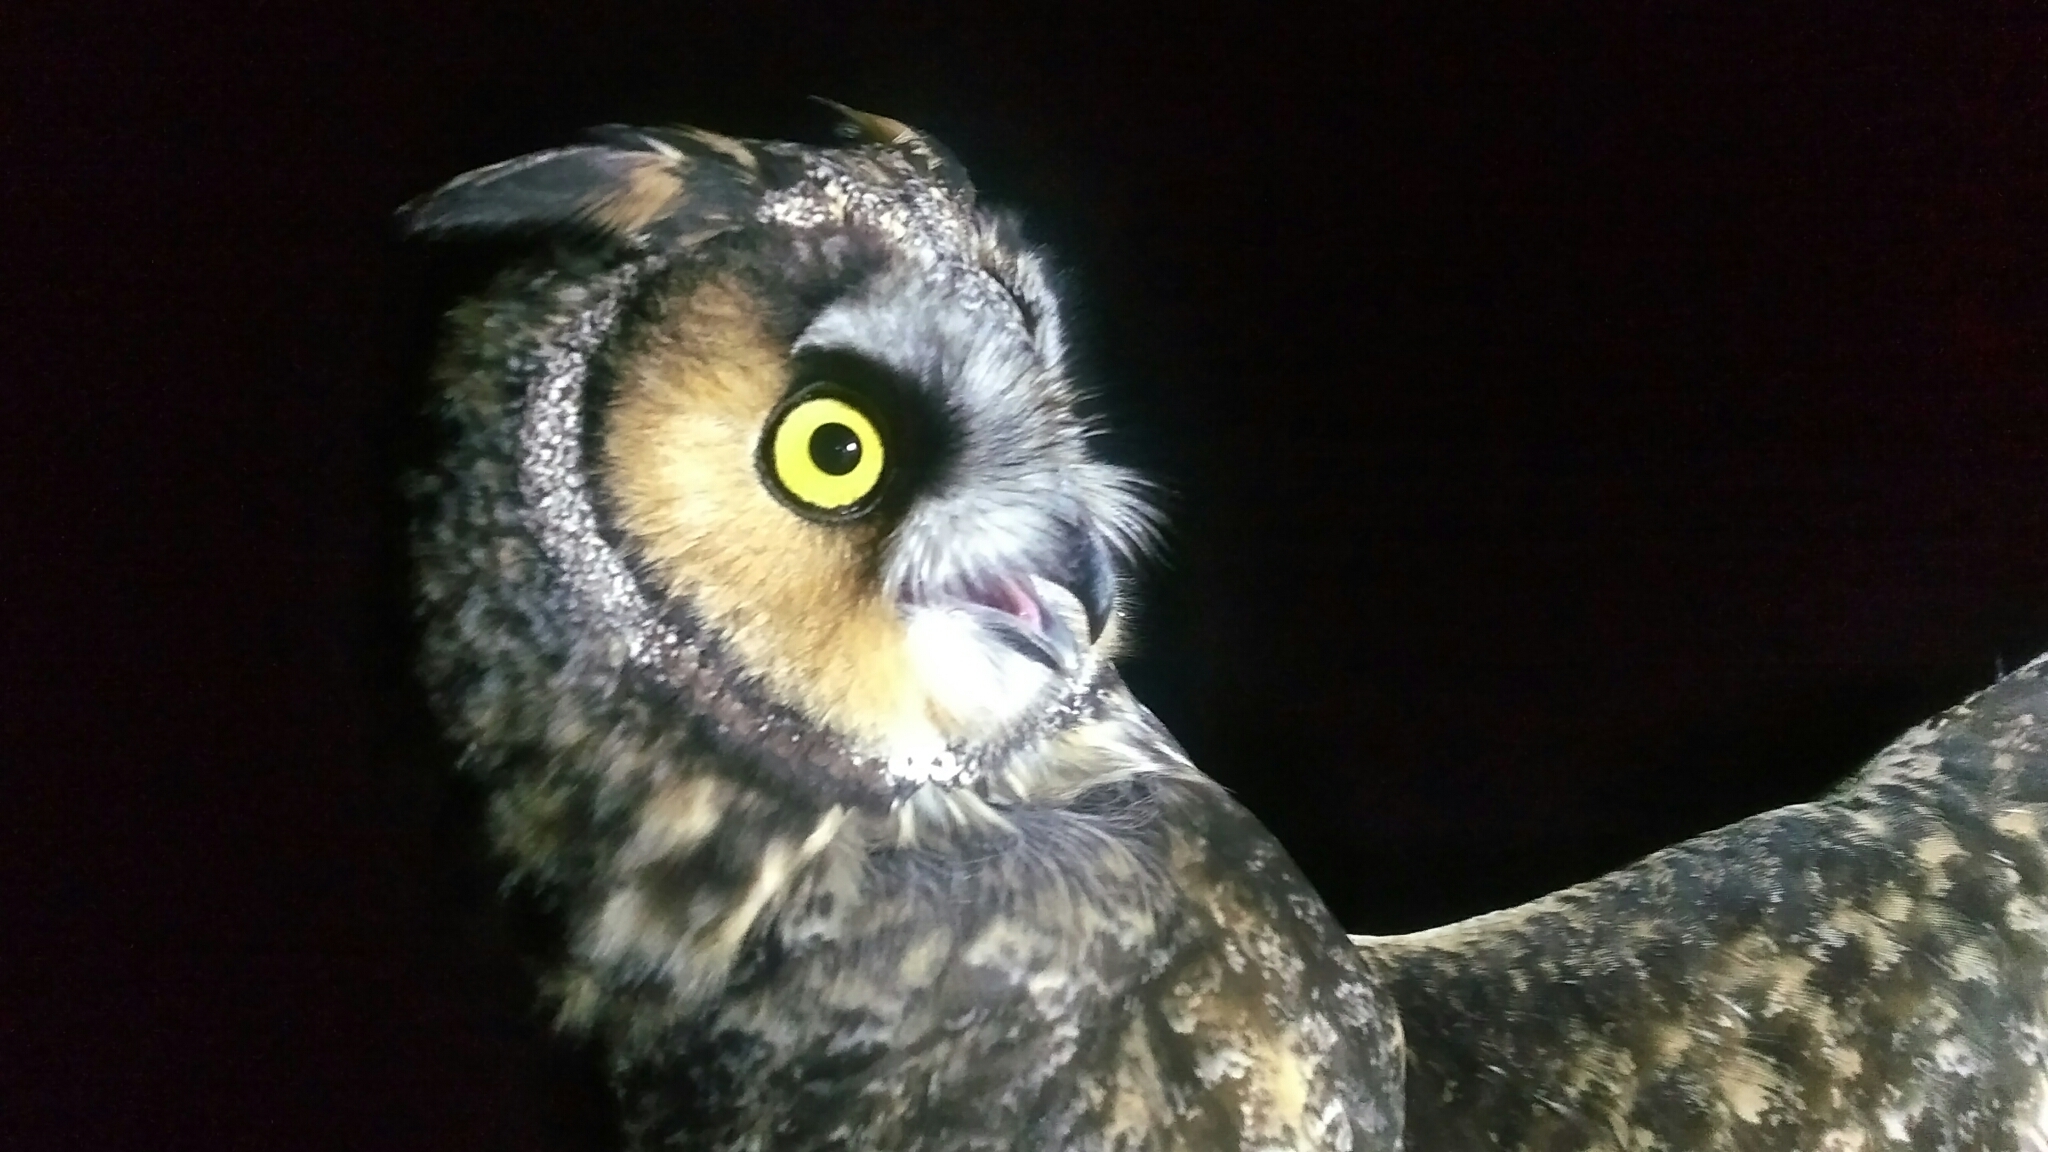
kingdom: Animalia
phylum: Chordata
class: Aves
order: Strigiformes
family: Strigidae
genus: Asio
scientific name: Asio otus
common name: Long-eared owl
